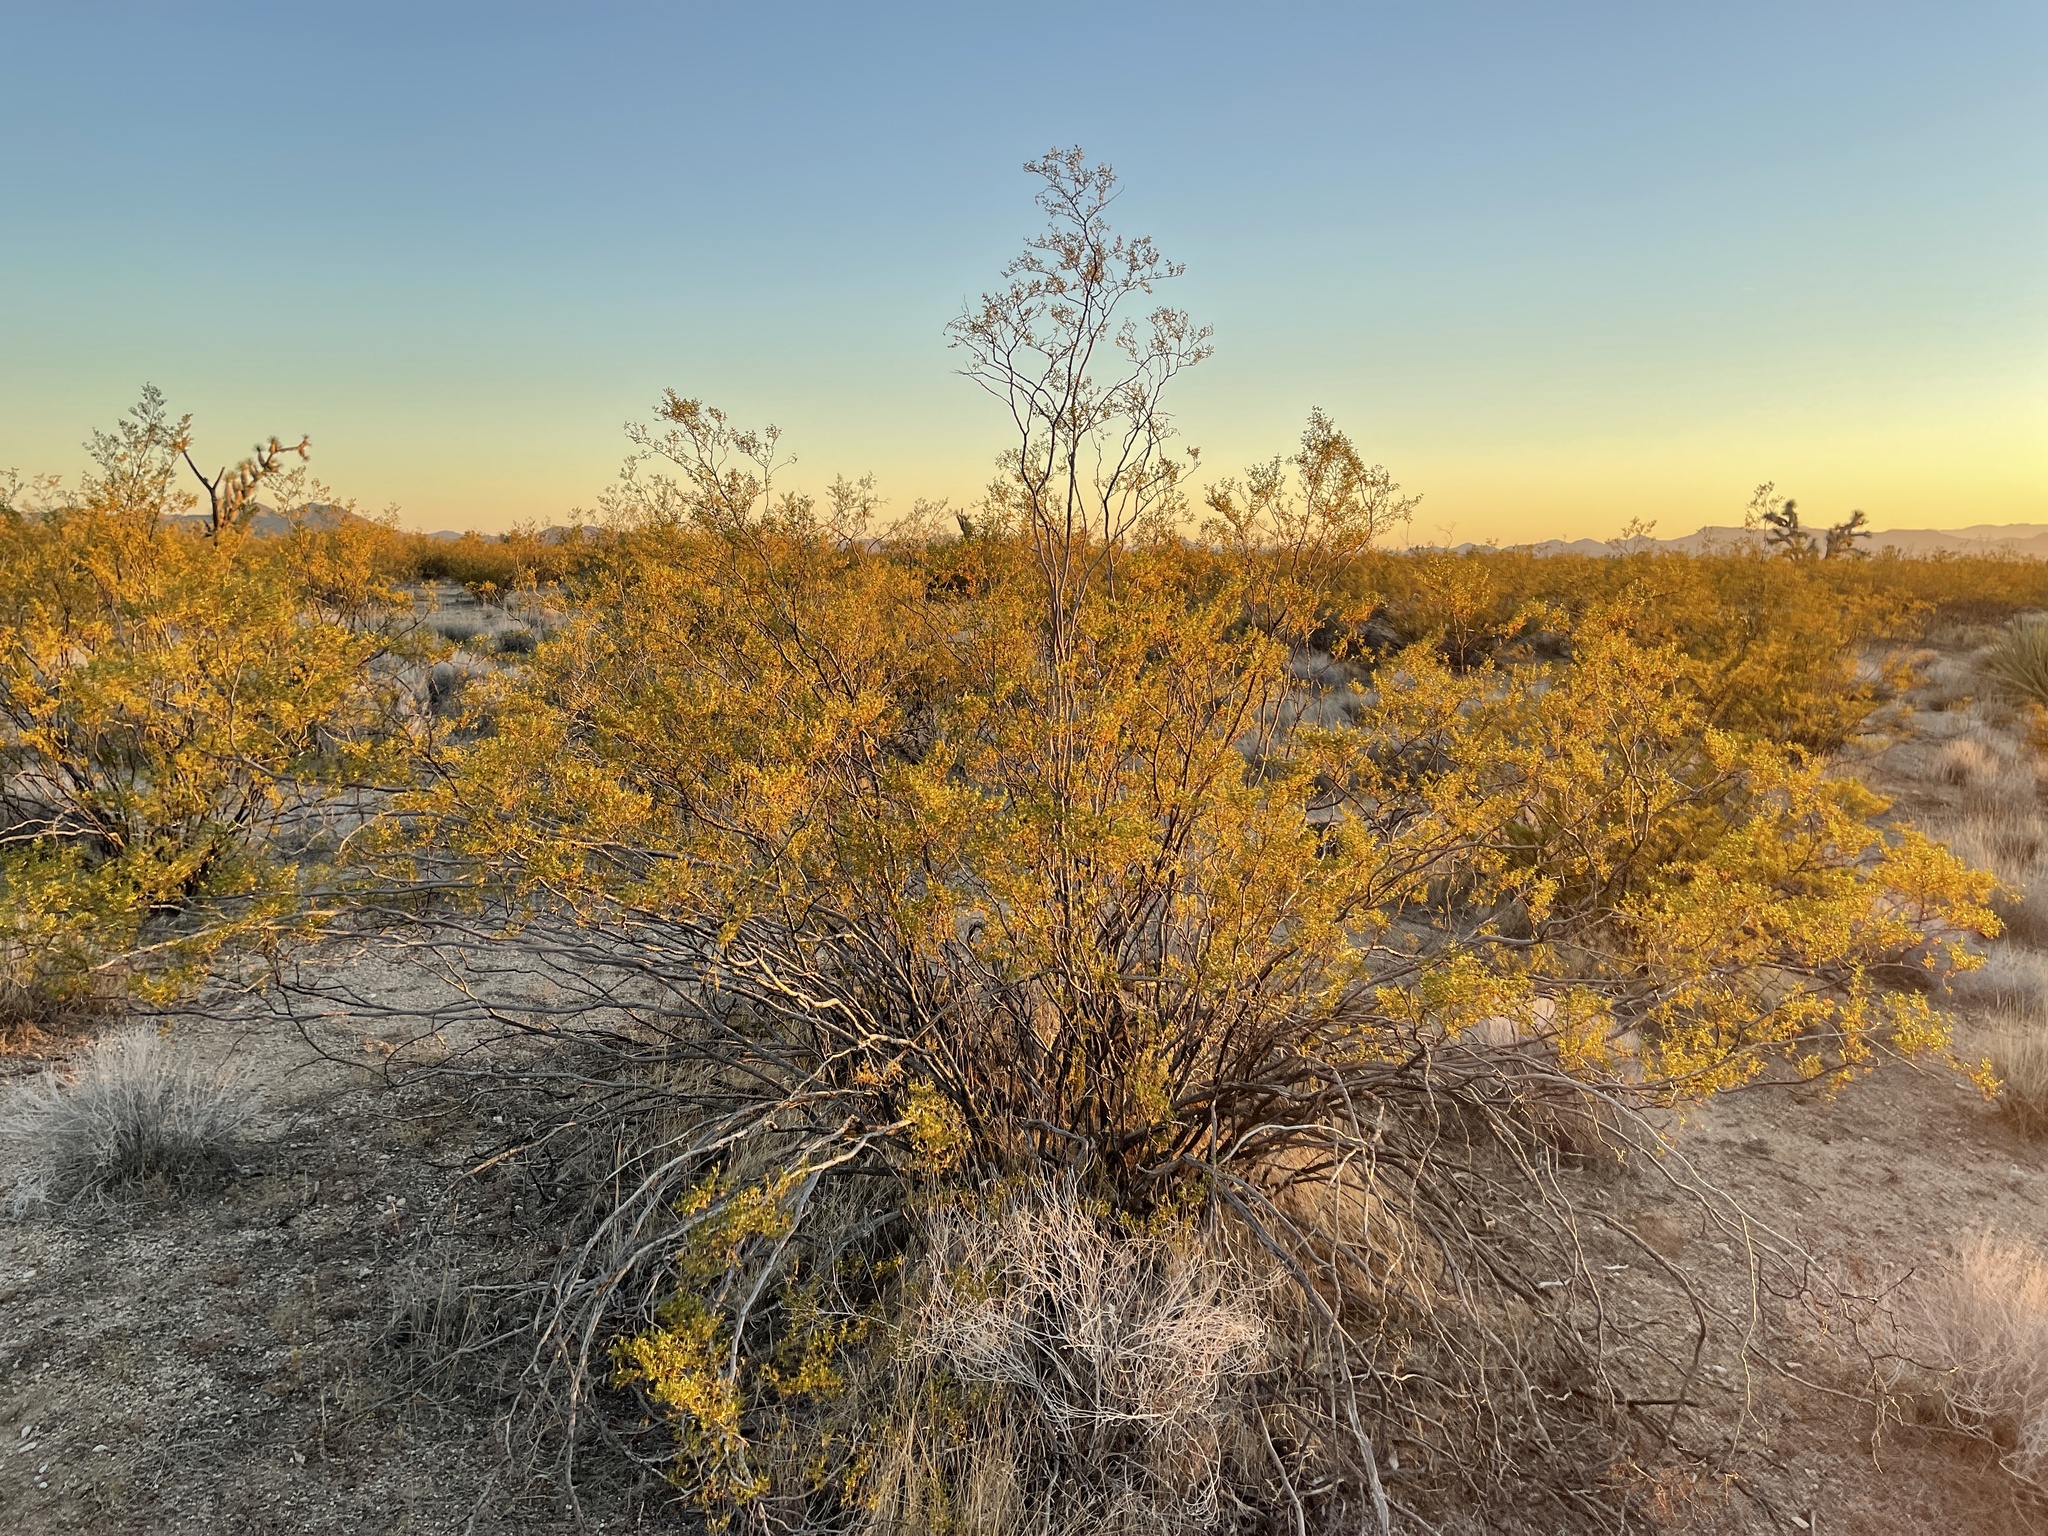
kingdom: Plantae
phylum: Tracheophyta
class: Magnoliopsida
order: Zygophyllales
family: Zygophyllaceae
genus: Larrea
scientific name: Larrea tridentata
